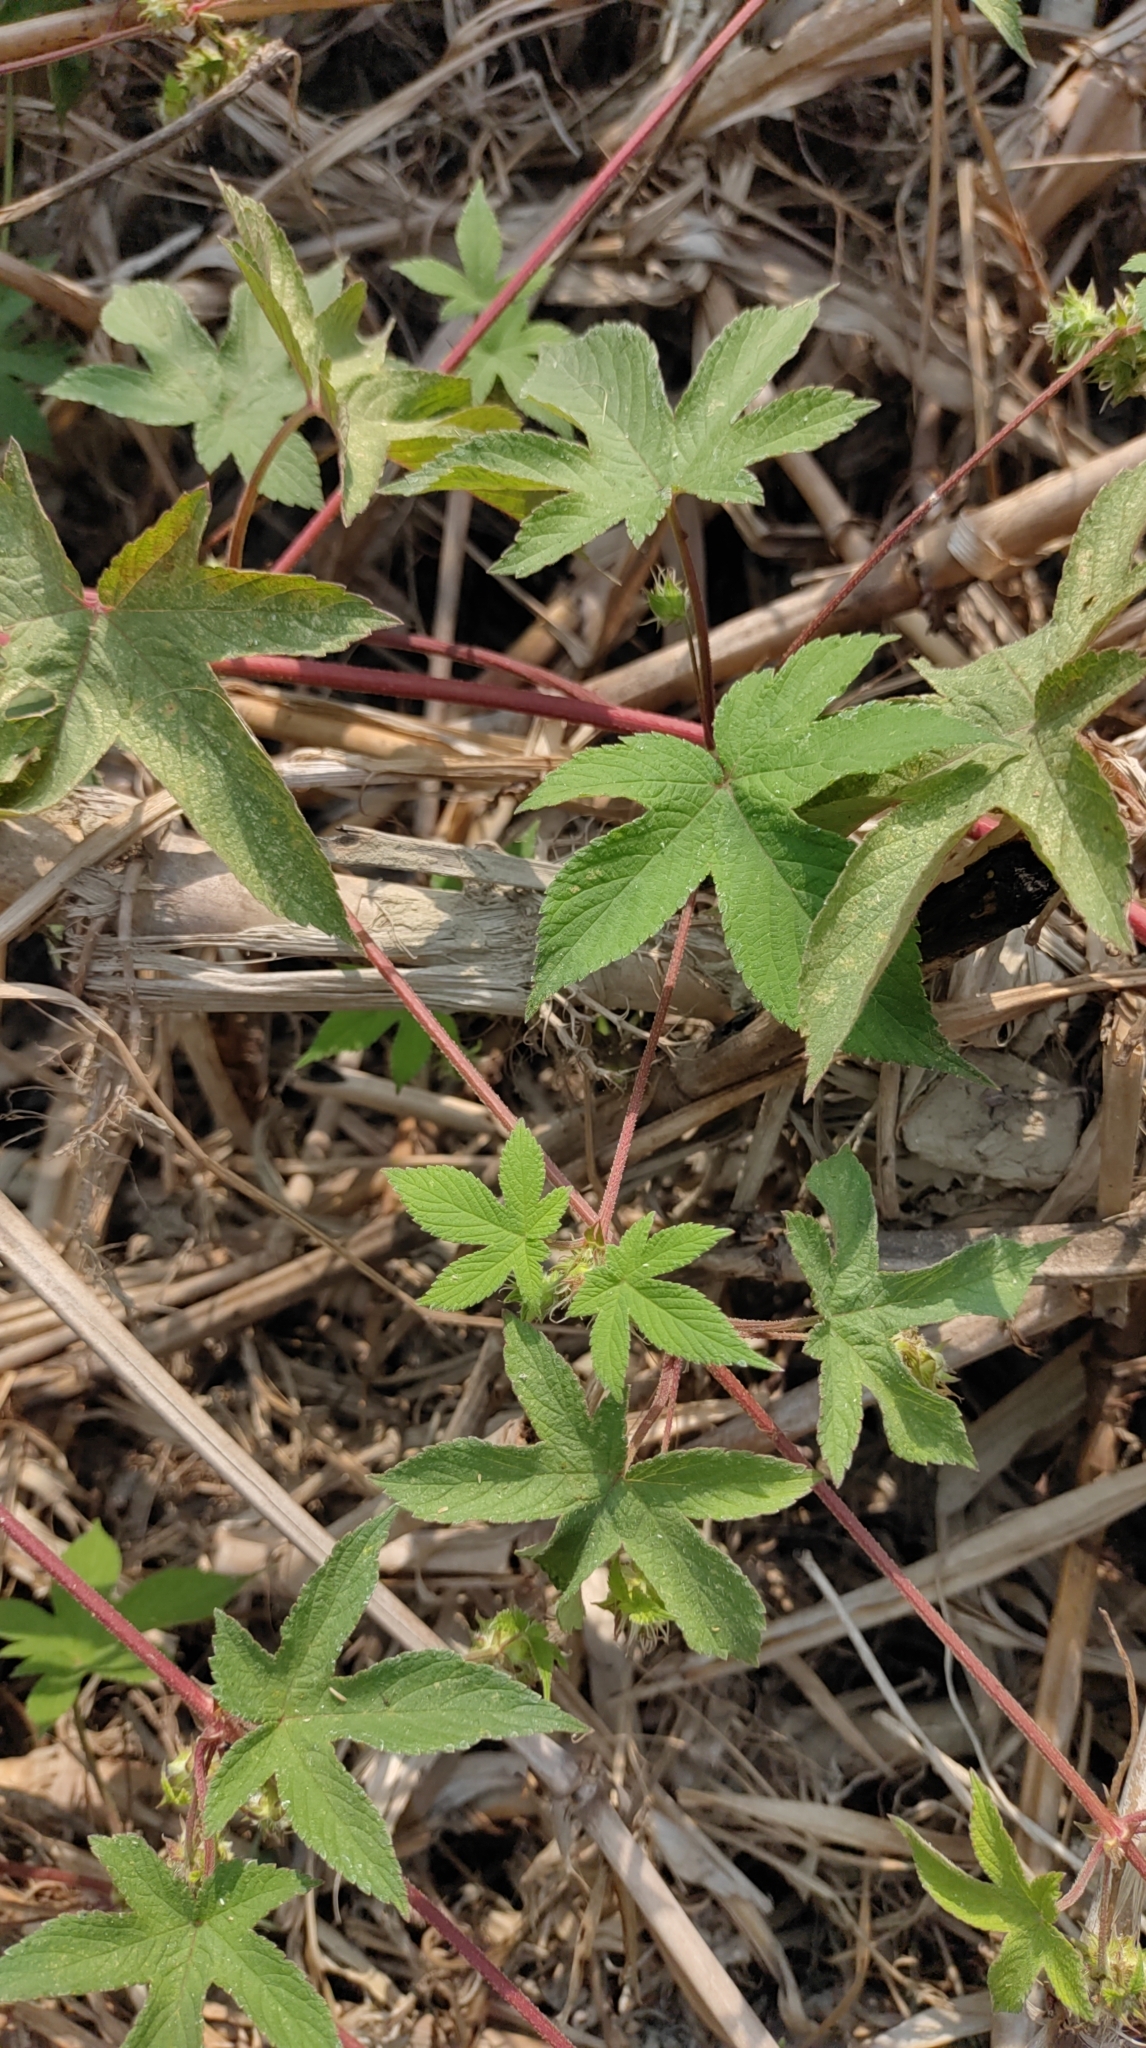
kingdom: Plantae
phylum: Tracheophyta
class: Magnoliopsida
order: Rosales
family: Cannabaceae
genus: Humulus
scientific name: Humulus scandens
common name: Japanese hop
